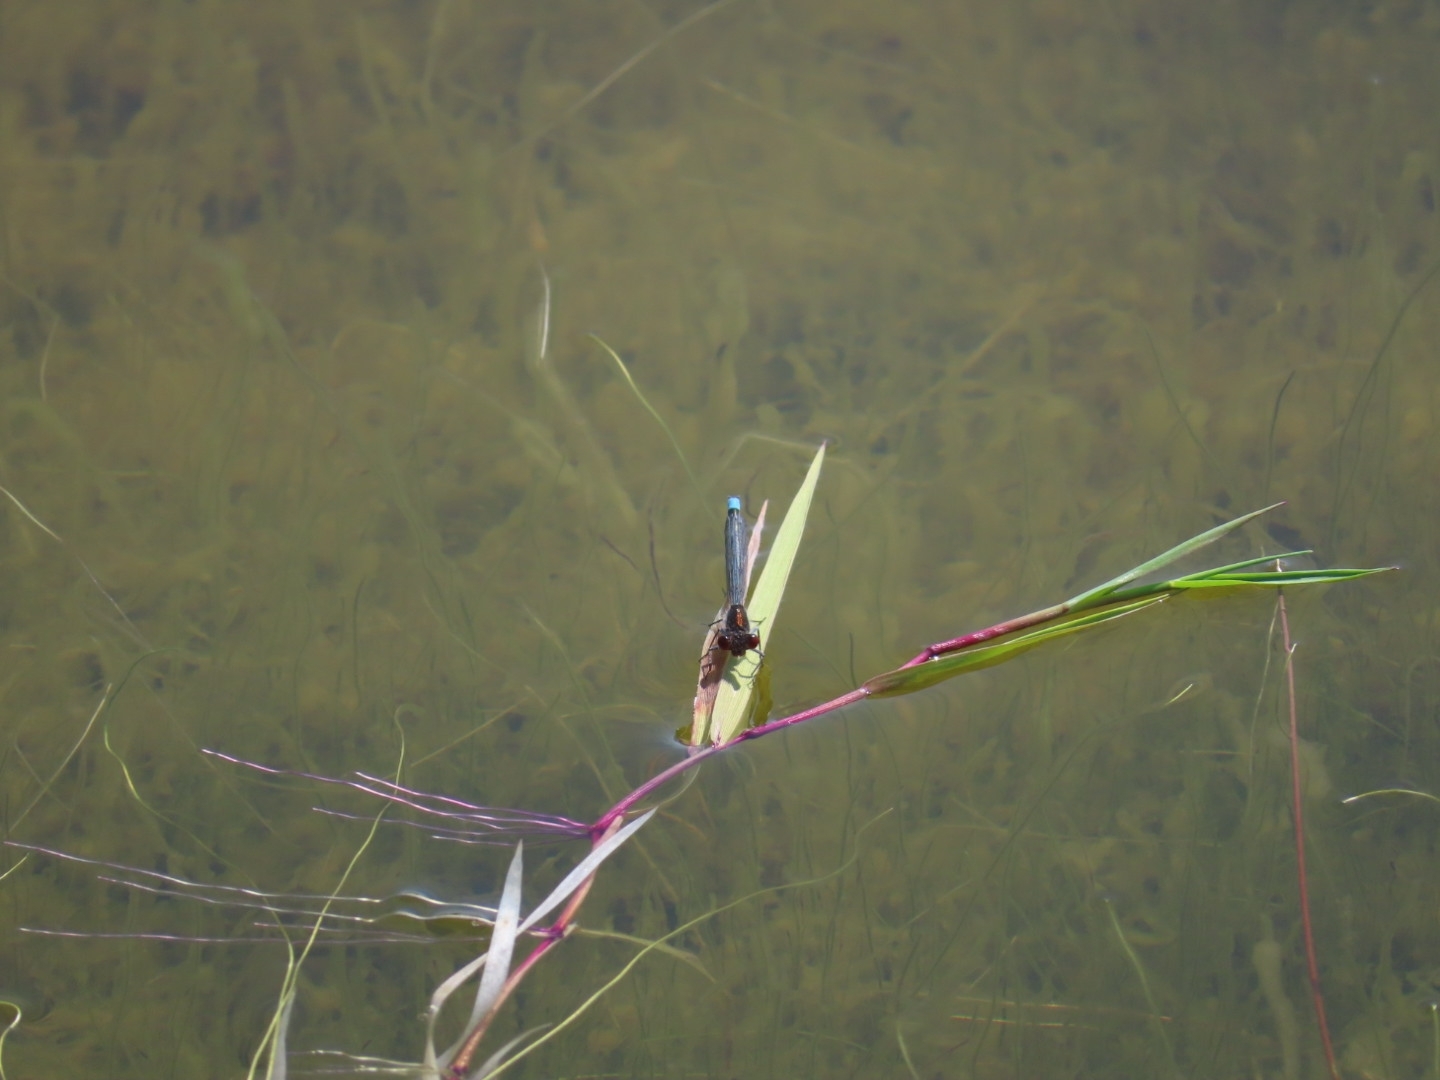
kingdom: Animalia
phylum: Arthropoda
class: Insecta
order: Odonata
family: Coenagrionidae
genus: Erythromma
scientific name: Erythromma najas
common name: Red-eyed damselfly
